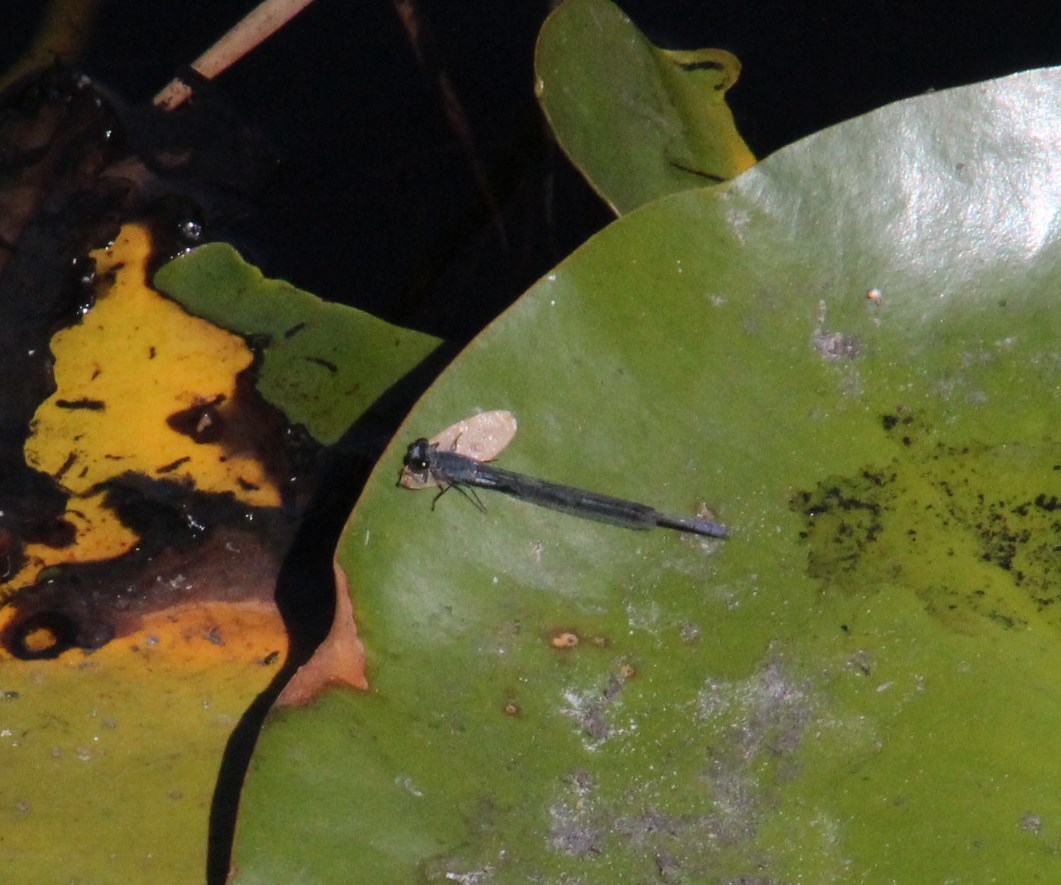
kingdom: Animalia
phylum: Arthropoda
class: Insecta
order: Odonata
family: Coenagrionidae
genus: Pseudagrion
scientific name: Pseudagrion draconis
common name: Mountain sprite
